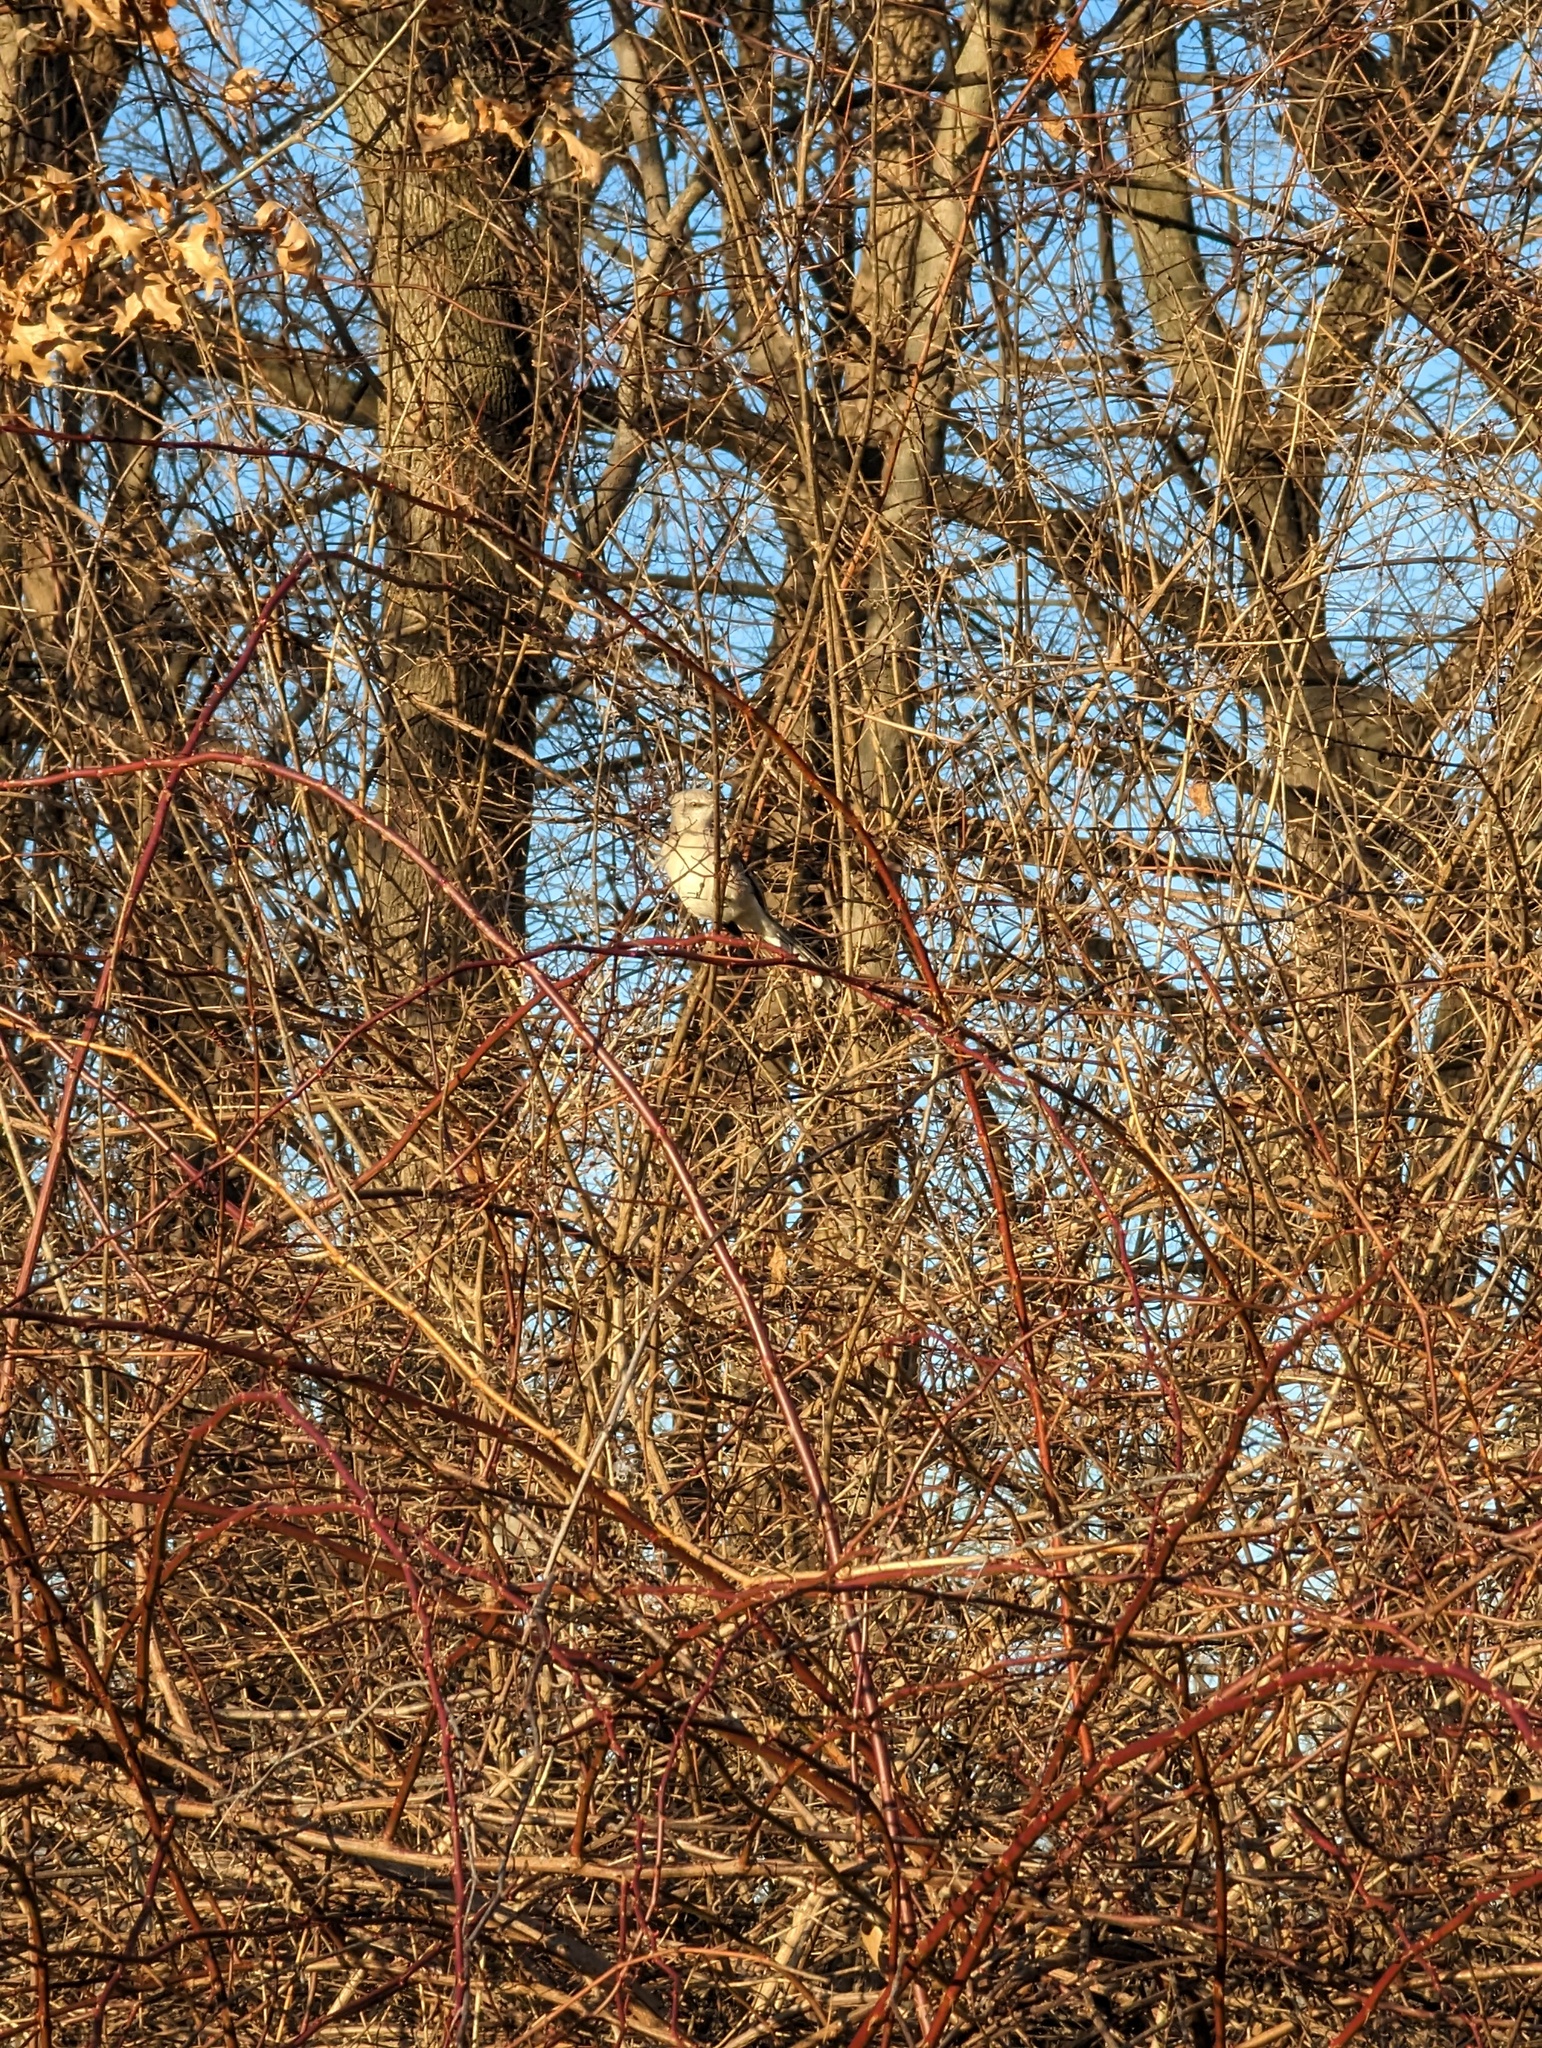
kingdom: Animalia
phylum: Chordata
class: Aves
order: Passeriformes
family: Mimidae
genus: Mimus
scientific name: Mimus polyglottos
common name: Northern mockingbird
